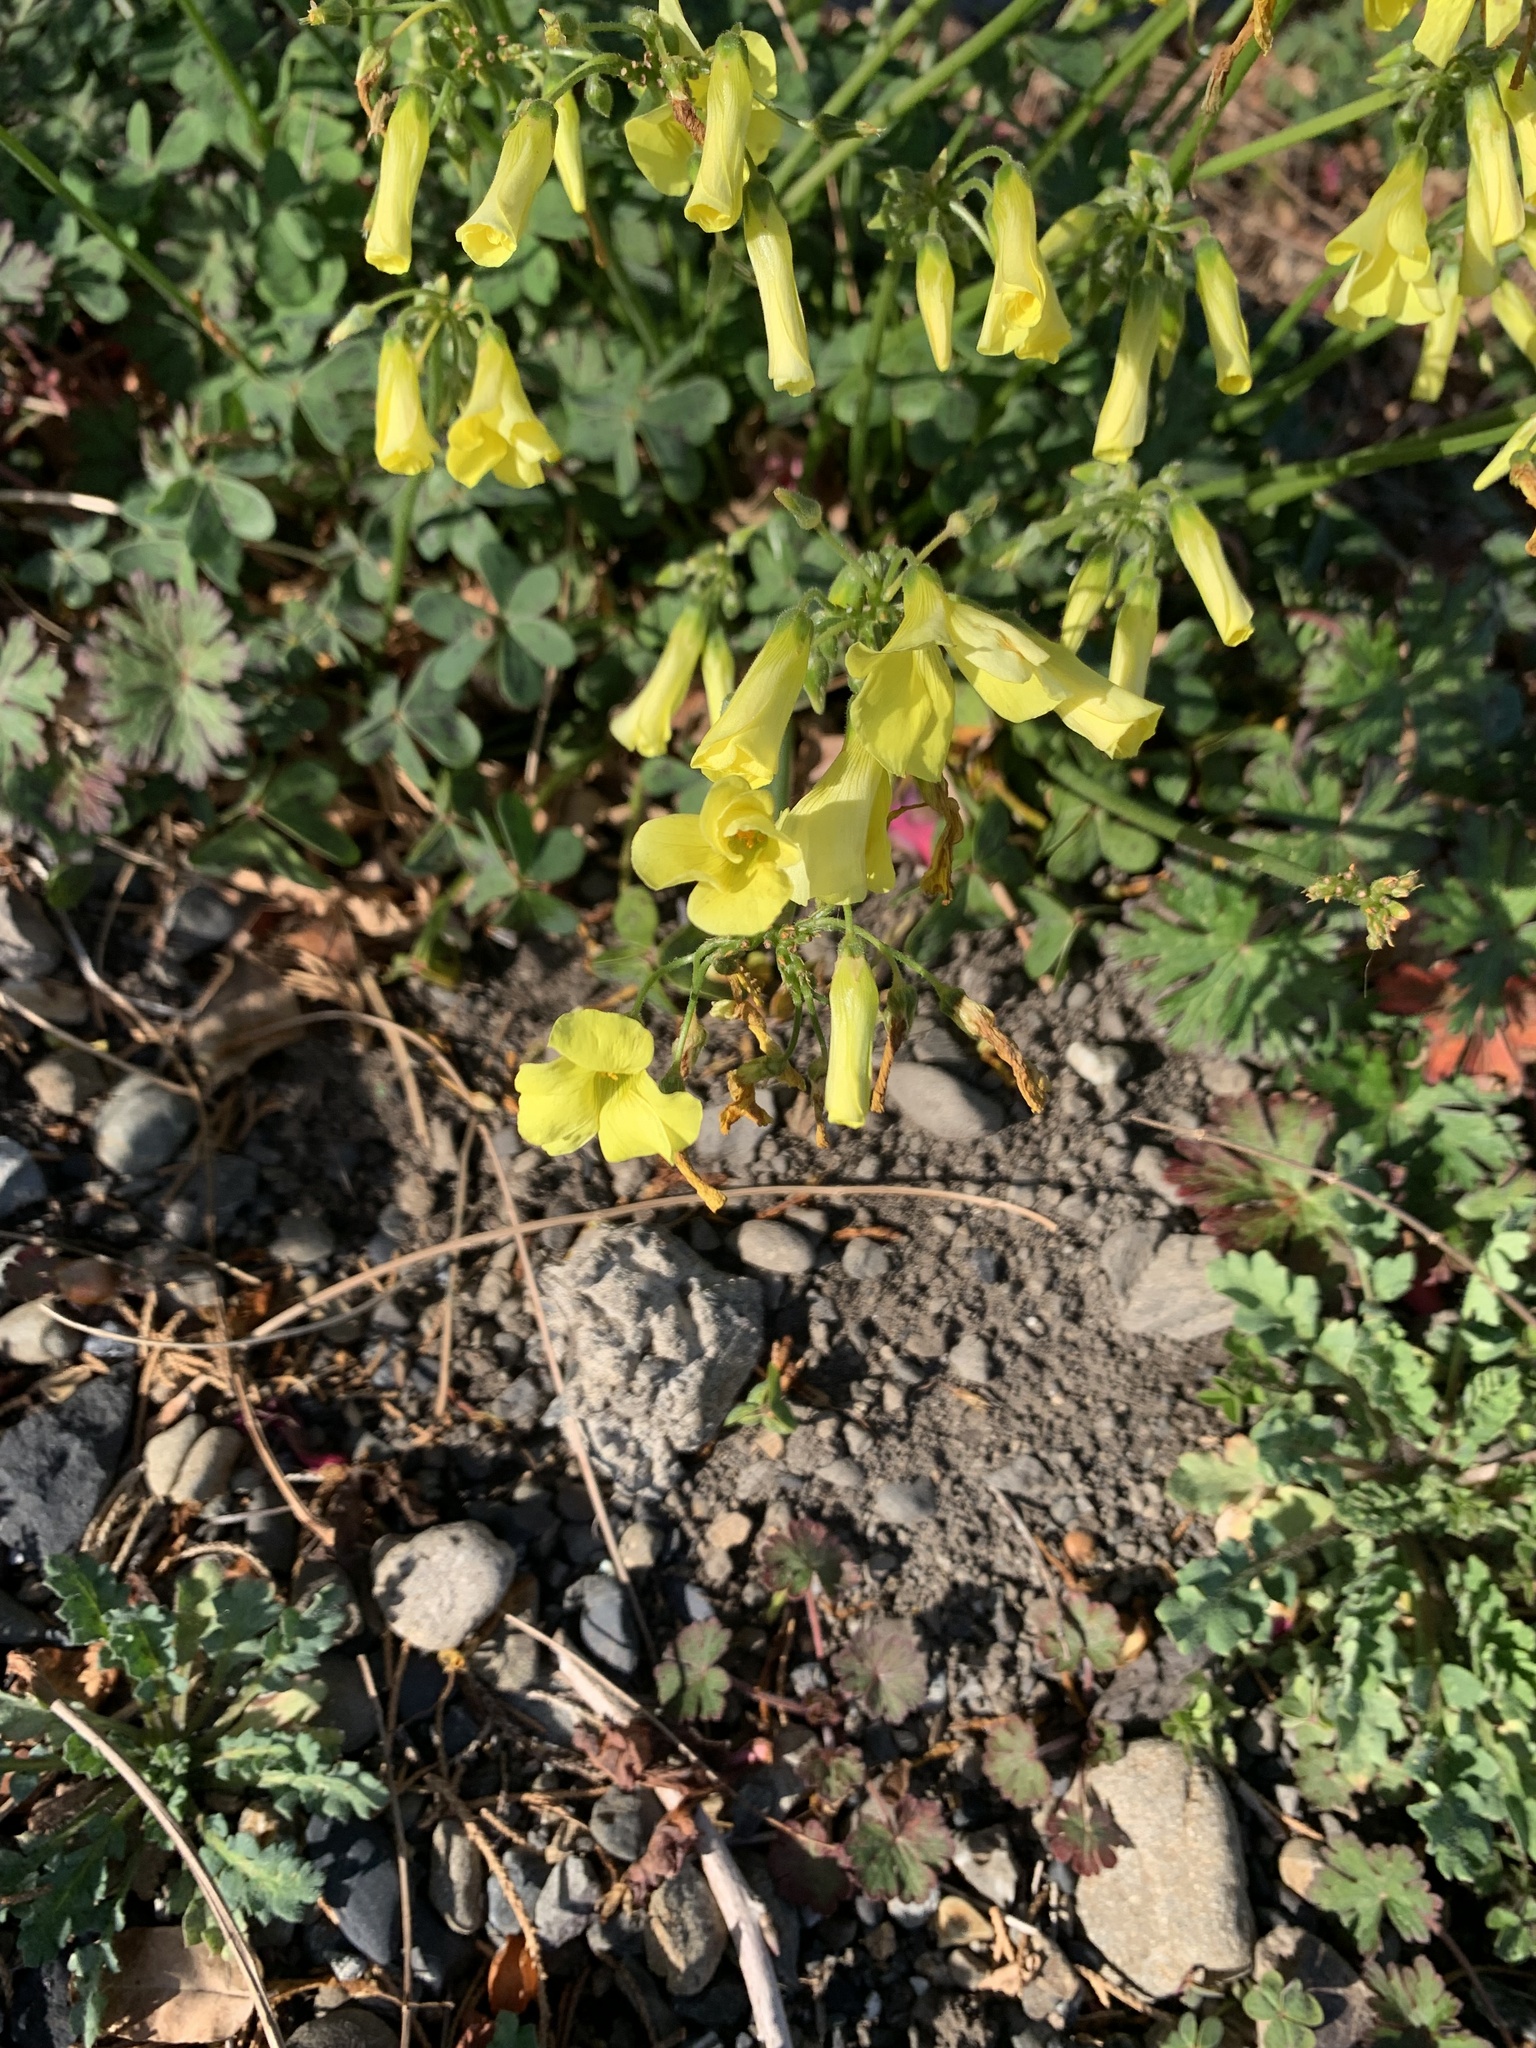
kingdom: Plantae
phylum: Tracheophyta
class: Magnoliopsida
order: Oxalidales
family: Oxalidaceae
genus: Oxalis
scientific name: Oxalis pes-caprae
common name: Bermuda-buttercup
